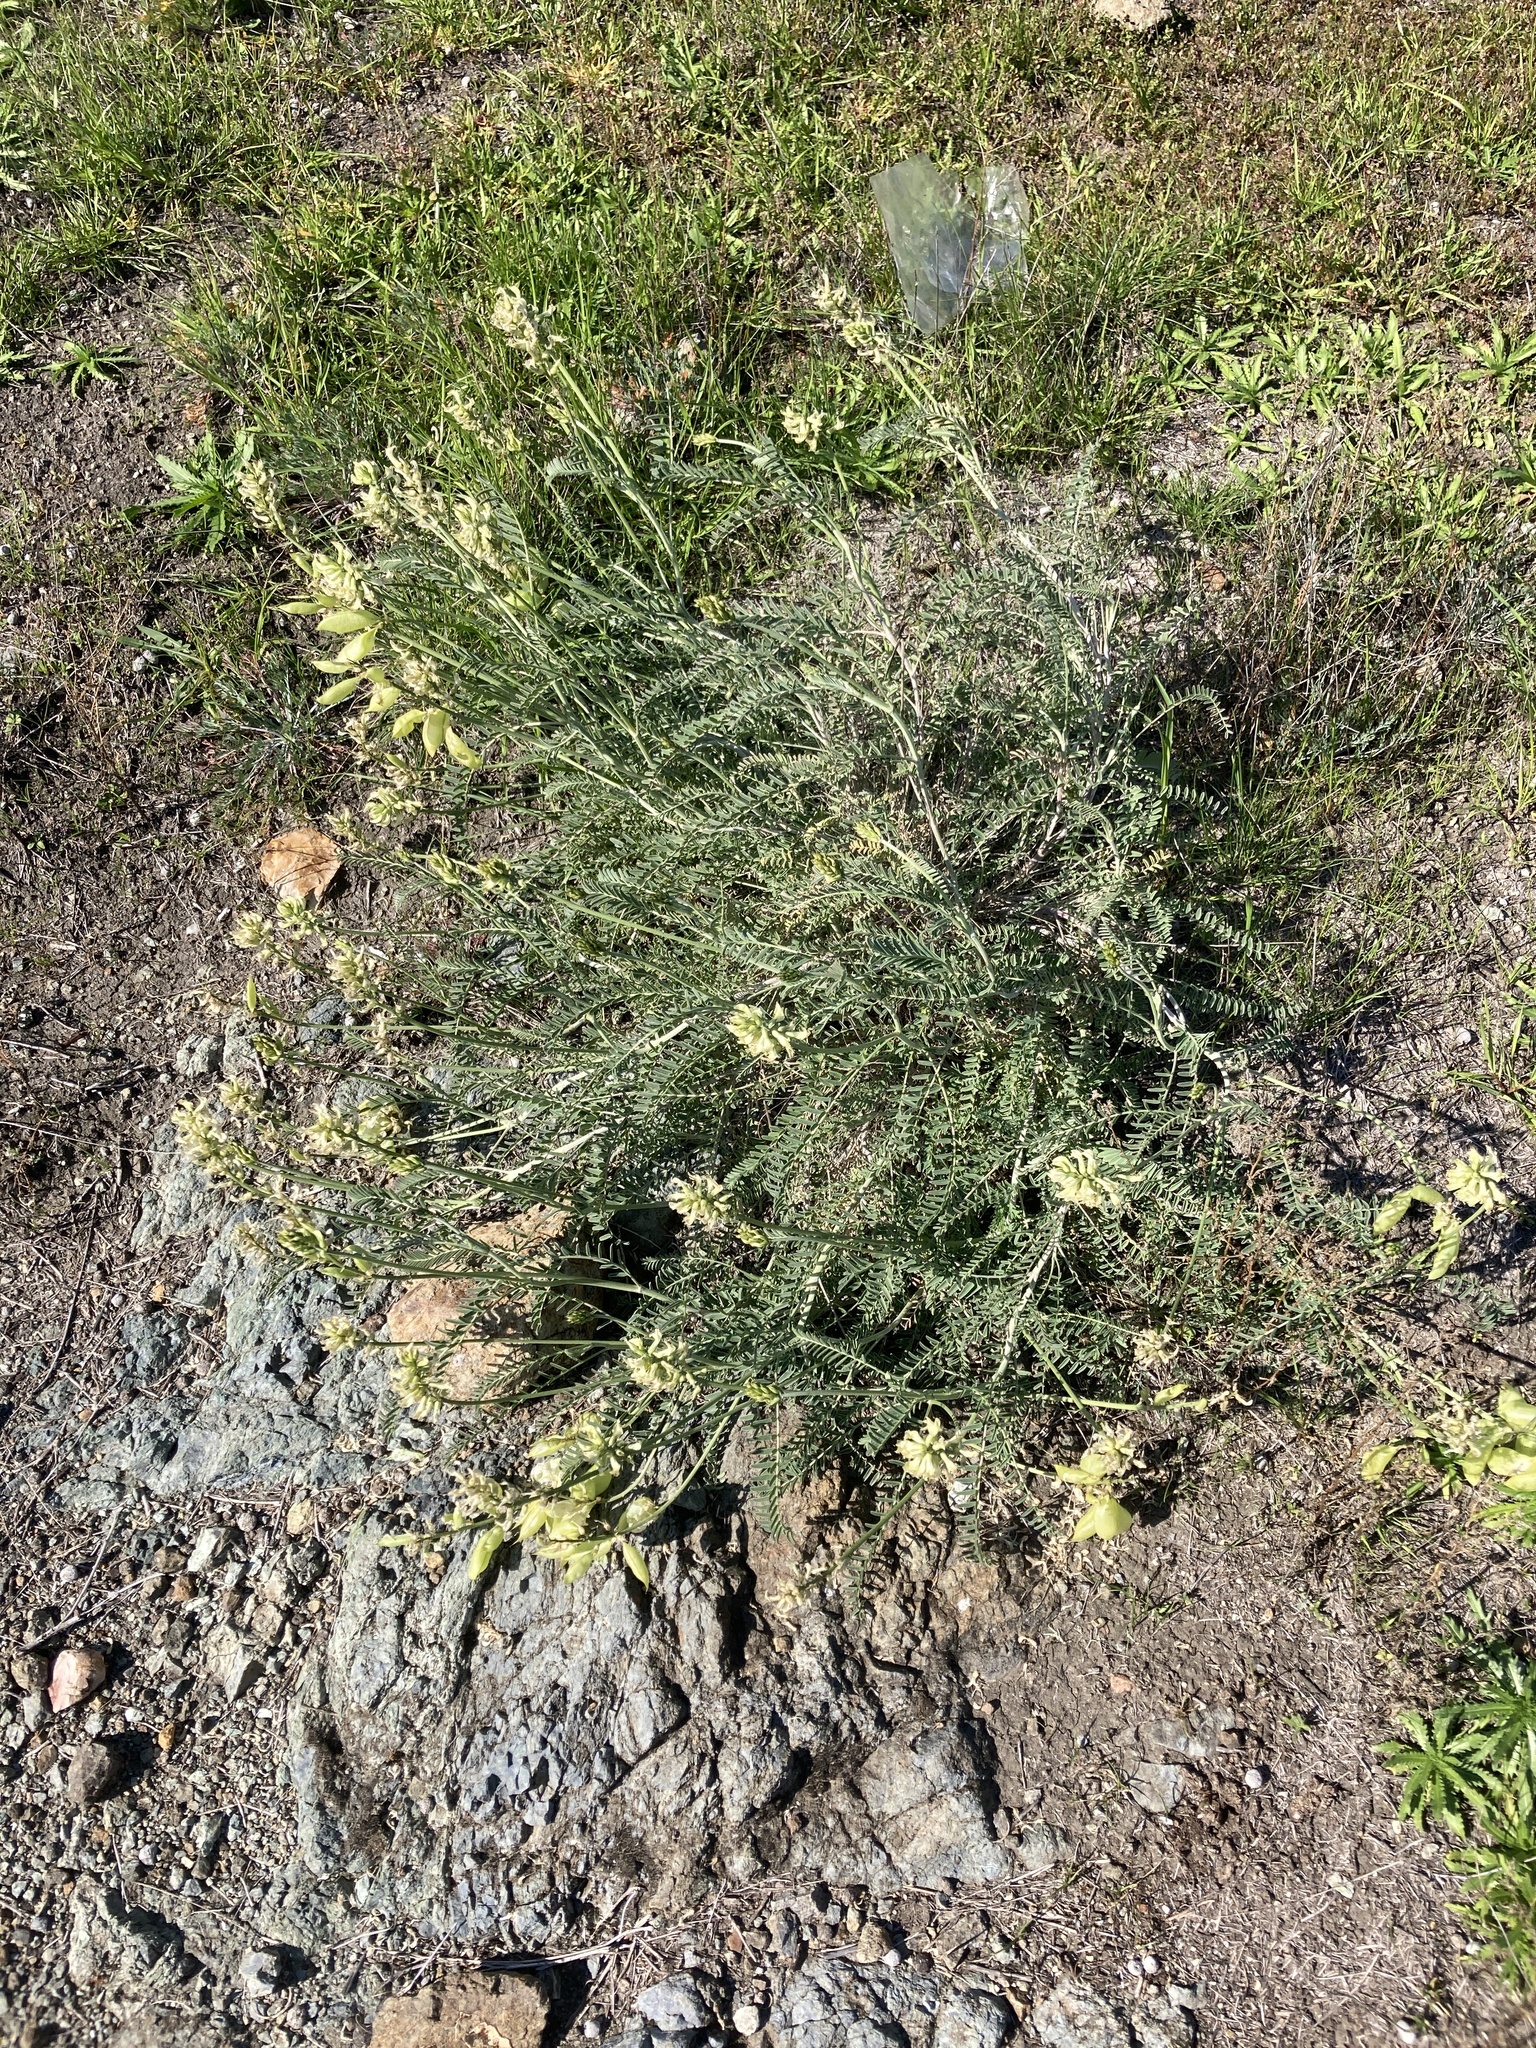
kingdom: Plantae
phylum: Tracheophyta
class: Magnoliopsida
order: Fabales
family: Fabaceae
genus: Astragalus
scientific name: Astragalus curtipes
